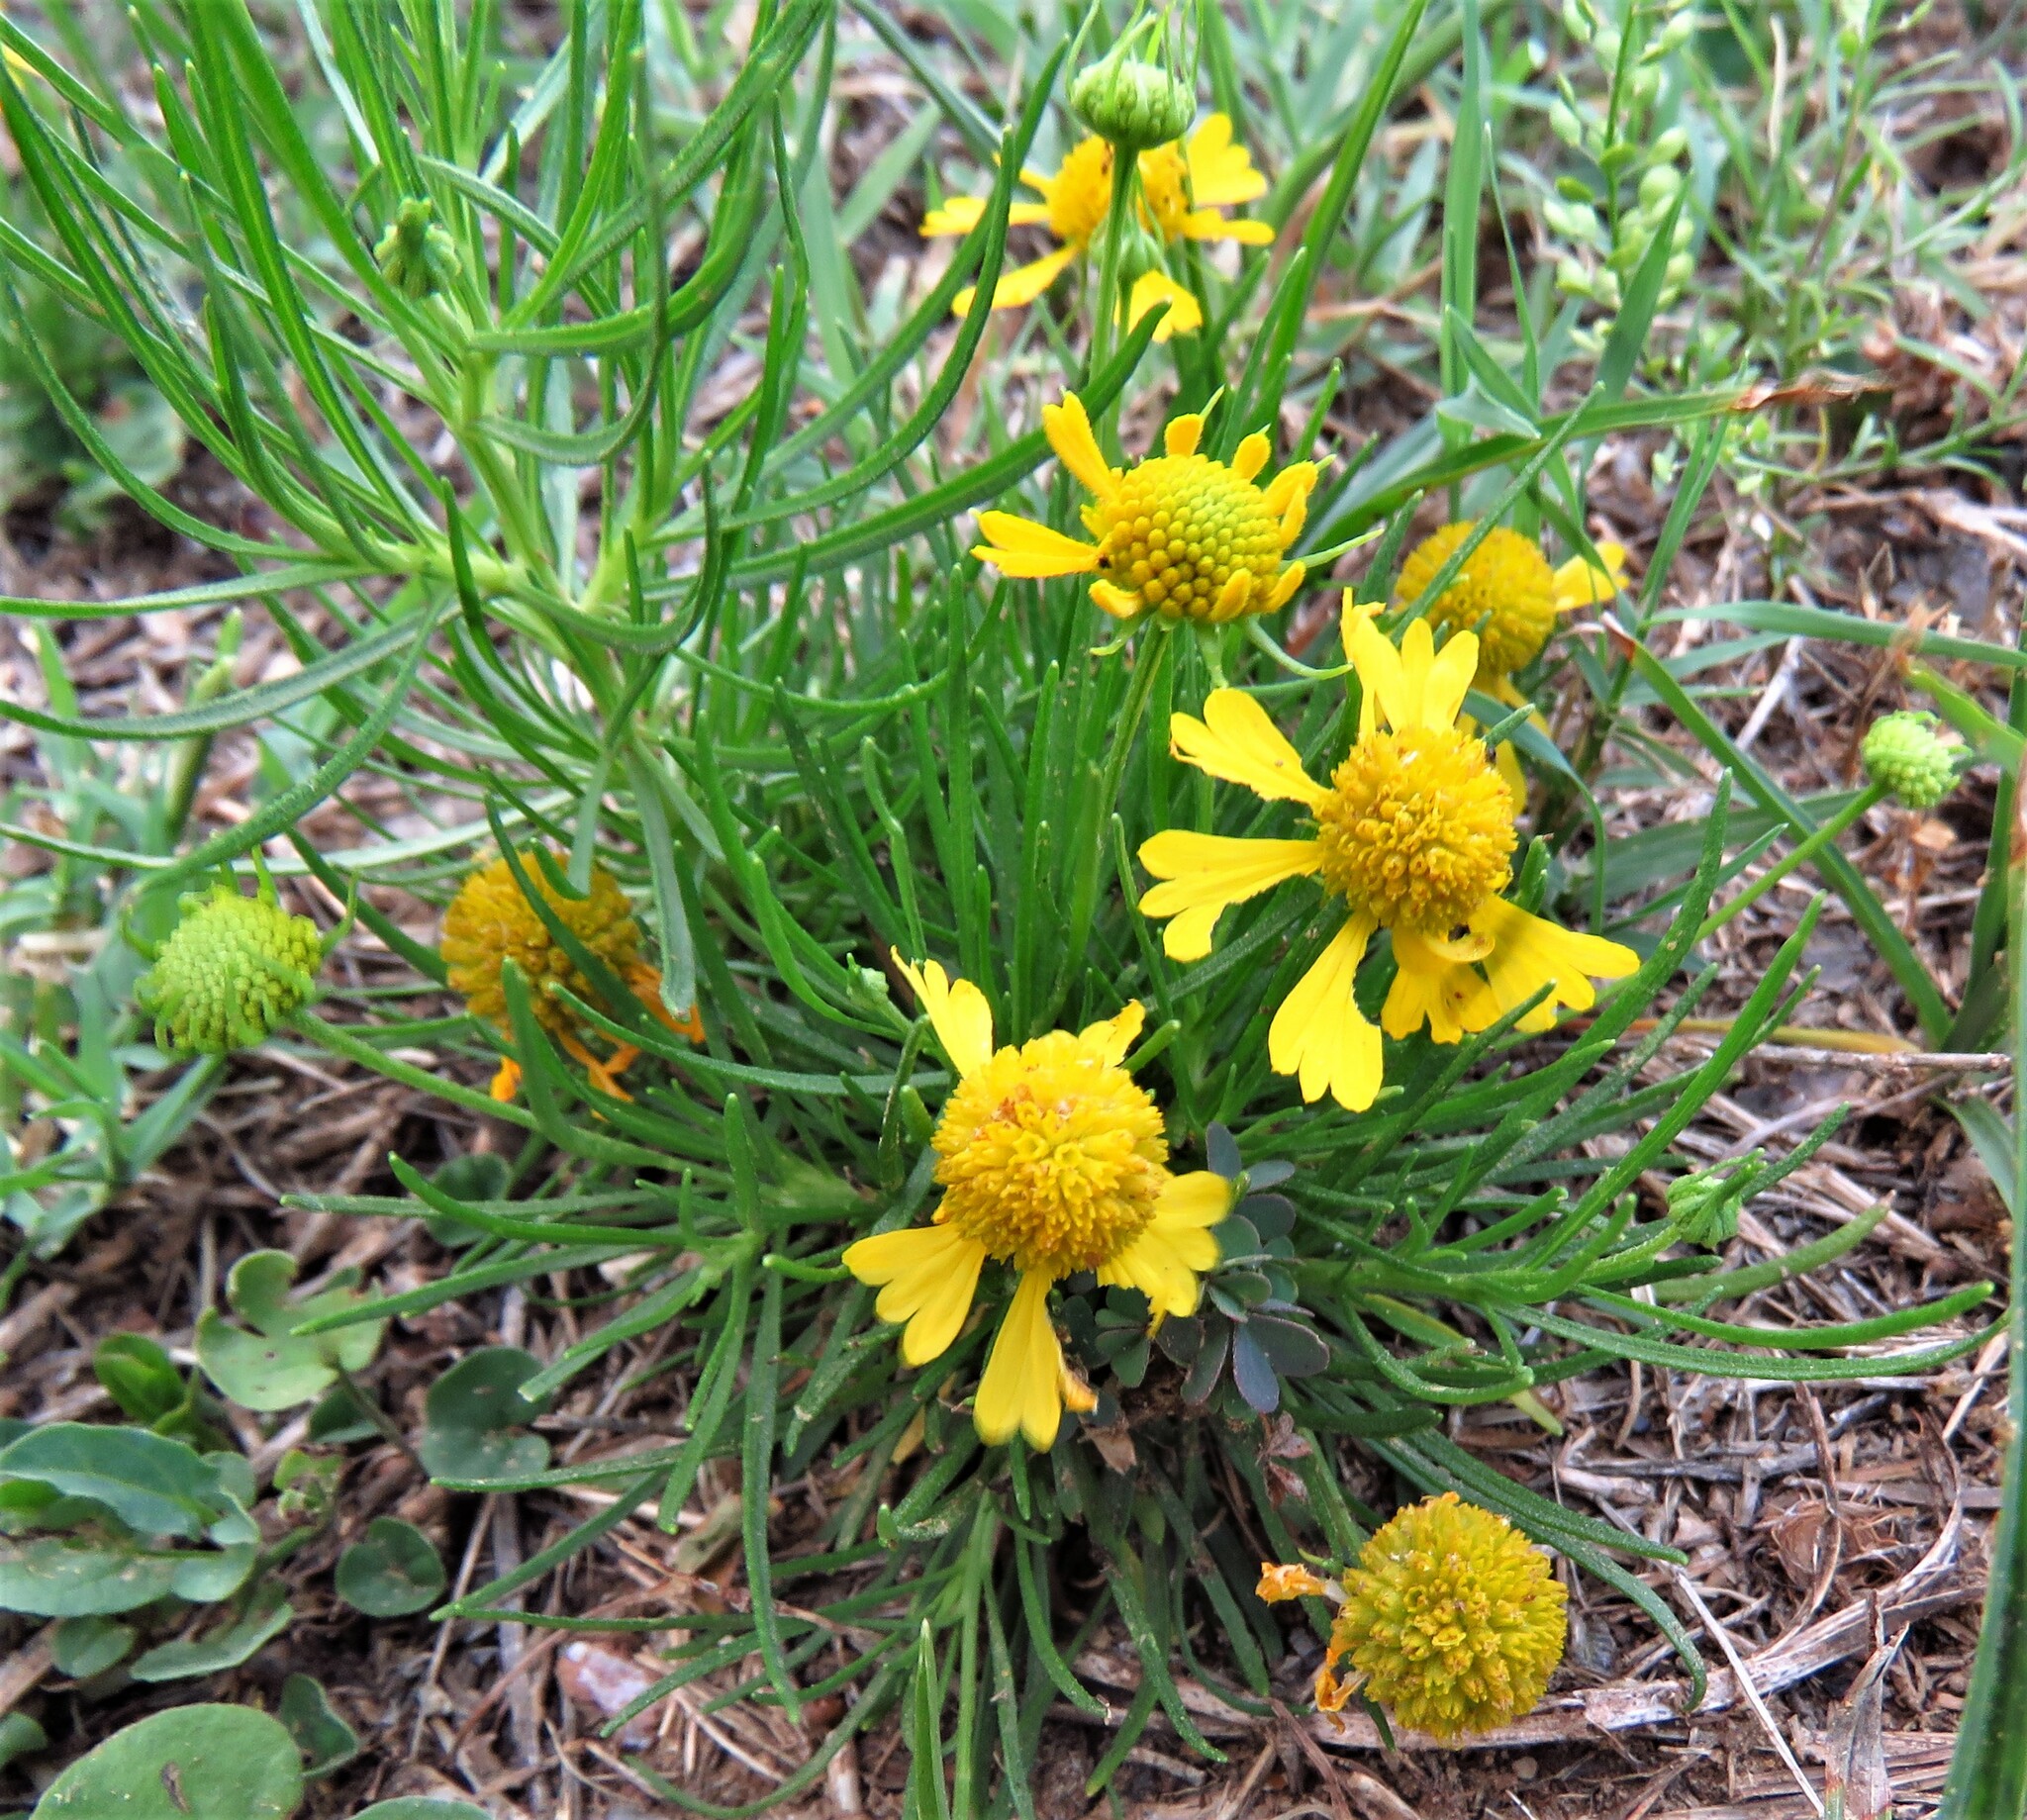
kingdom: Plantae
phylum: Tracheophyta
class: Magnoliopsida
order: Asterales
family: Asteraceae
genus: Helenium
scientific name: Helenium amarum
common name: Bitter sneezeweed
